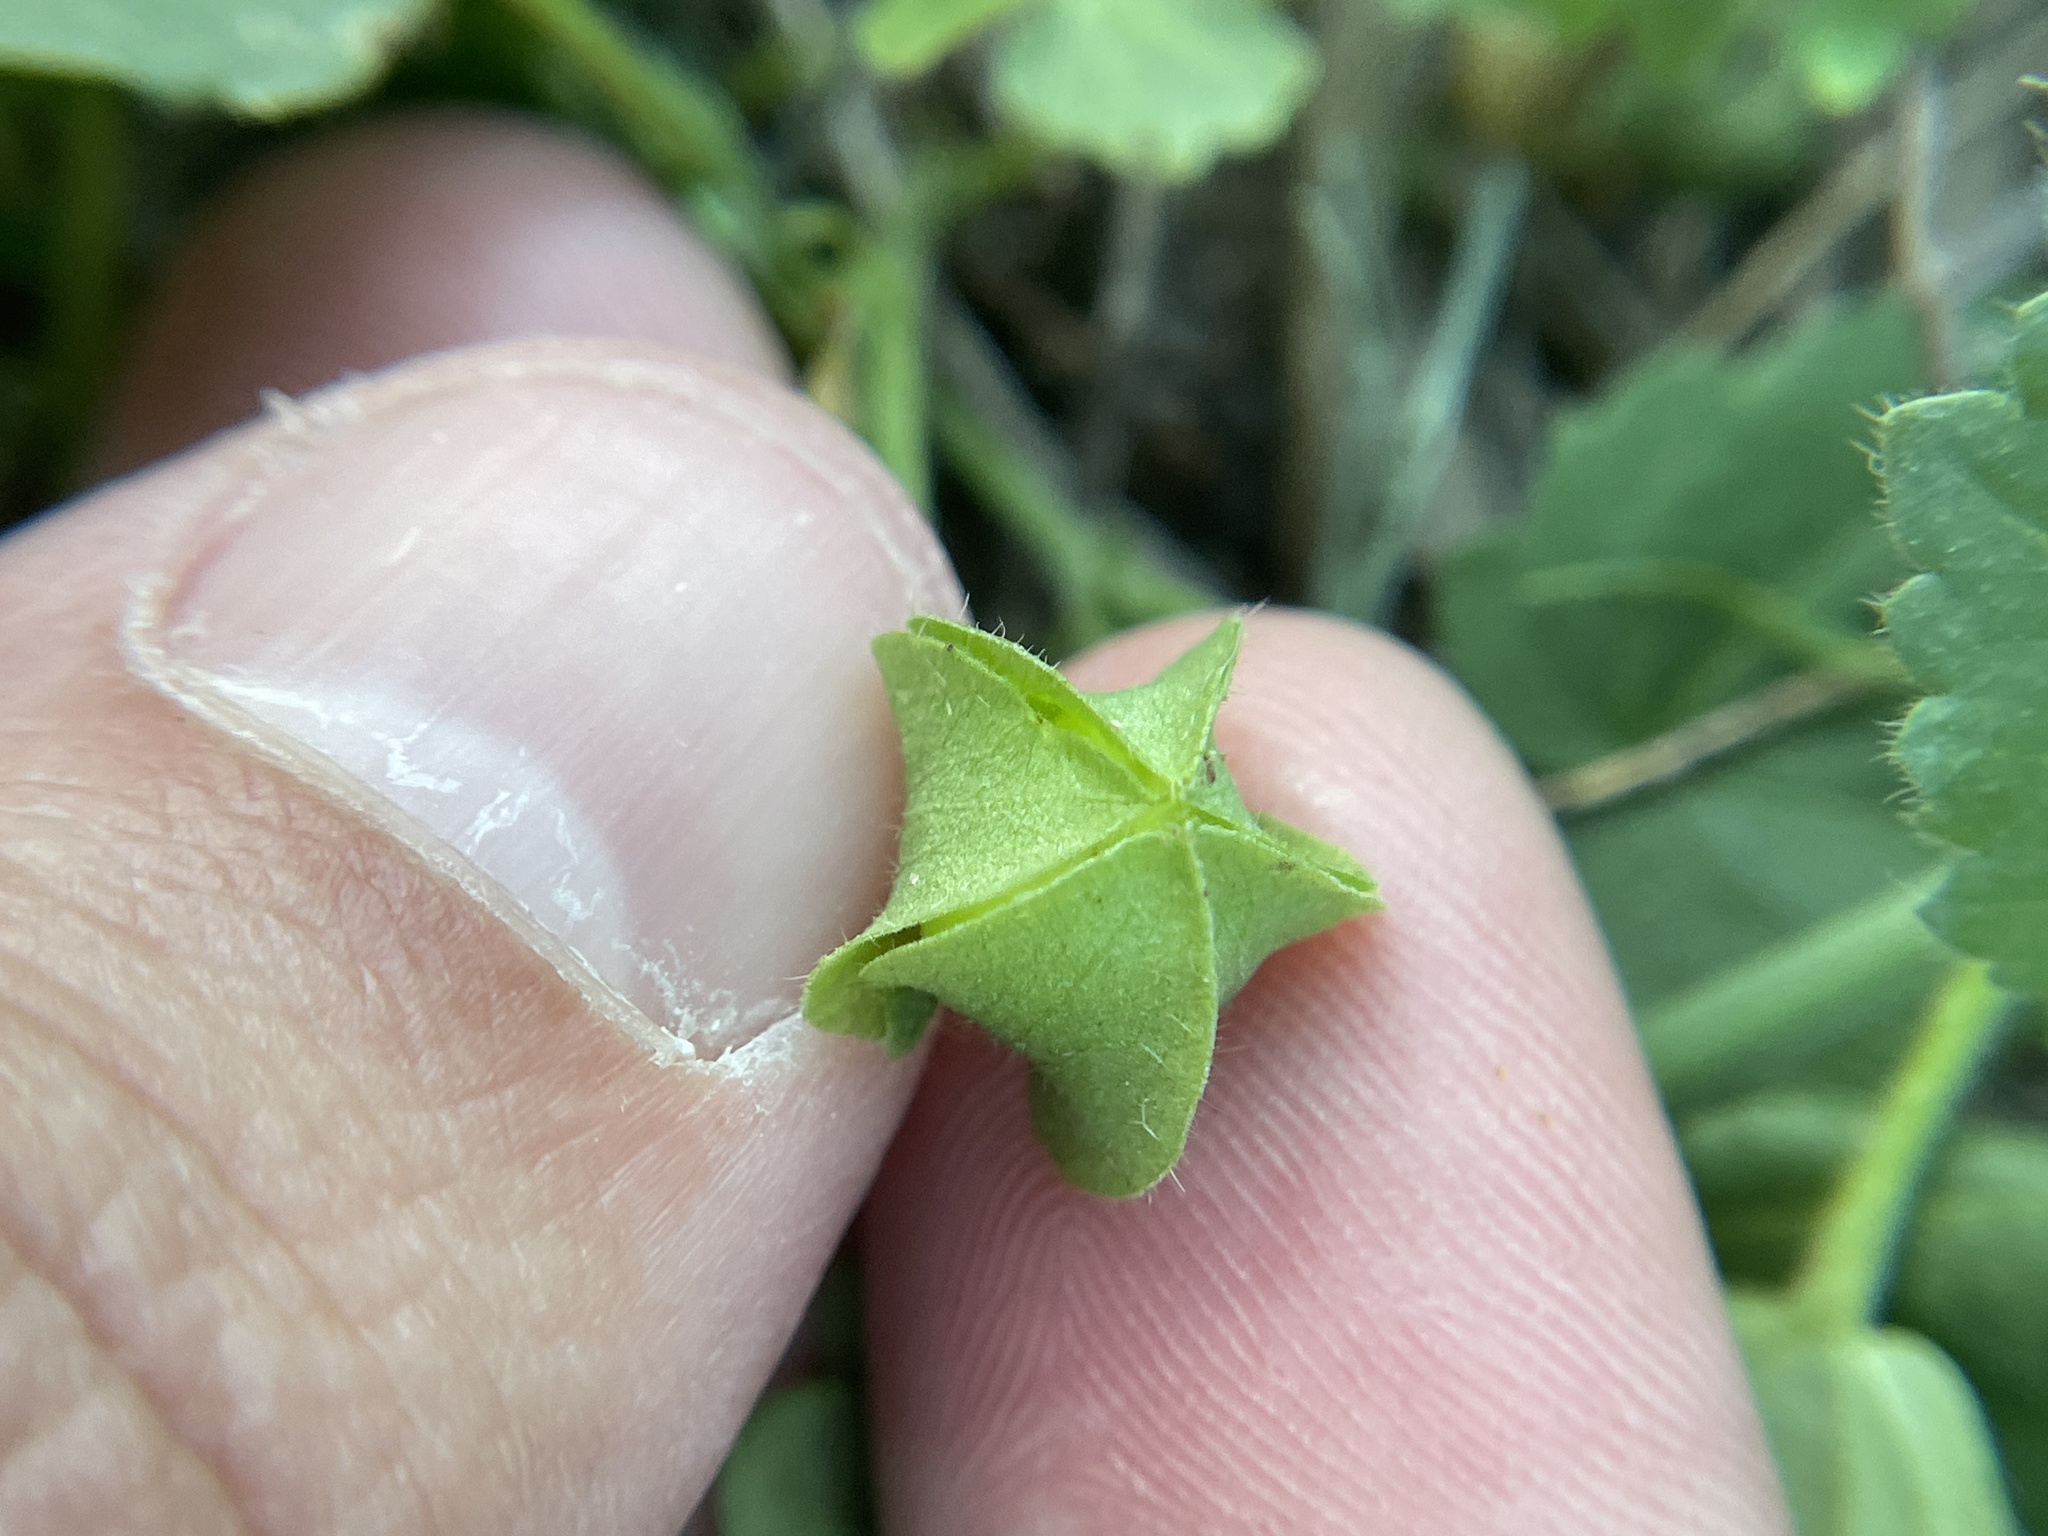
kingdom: Plantae
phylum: Tracheophyta
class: Magnoliopsida
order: Malvales
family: Malvaceae
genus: Rhynchosida
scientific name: Rhynchosida physocalyx
